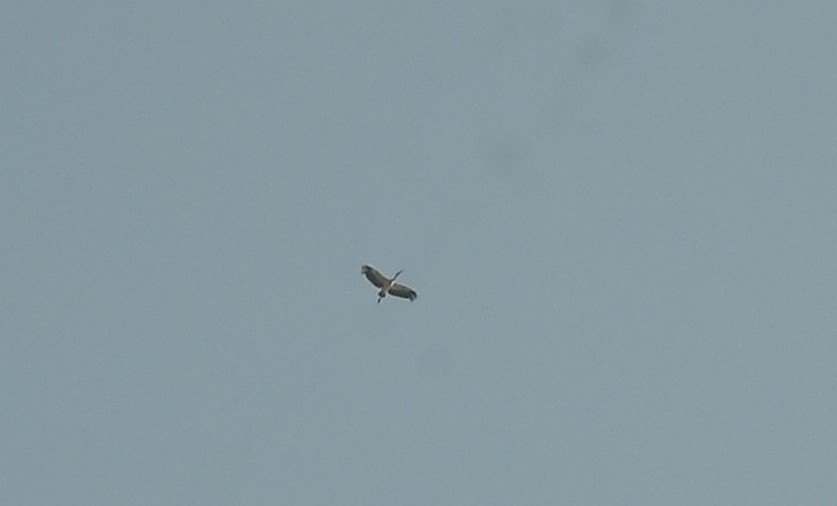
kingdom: Animalia
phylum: Chordata
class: Aves
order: Ciconiiformes
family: Ciconiidae
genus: Anastomus
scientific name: Anastomus oscitans
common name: Asian openbill
